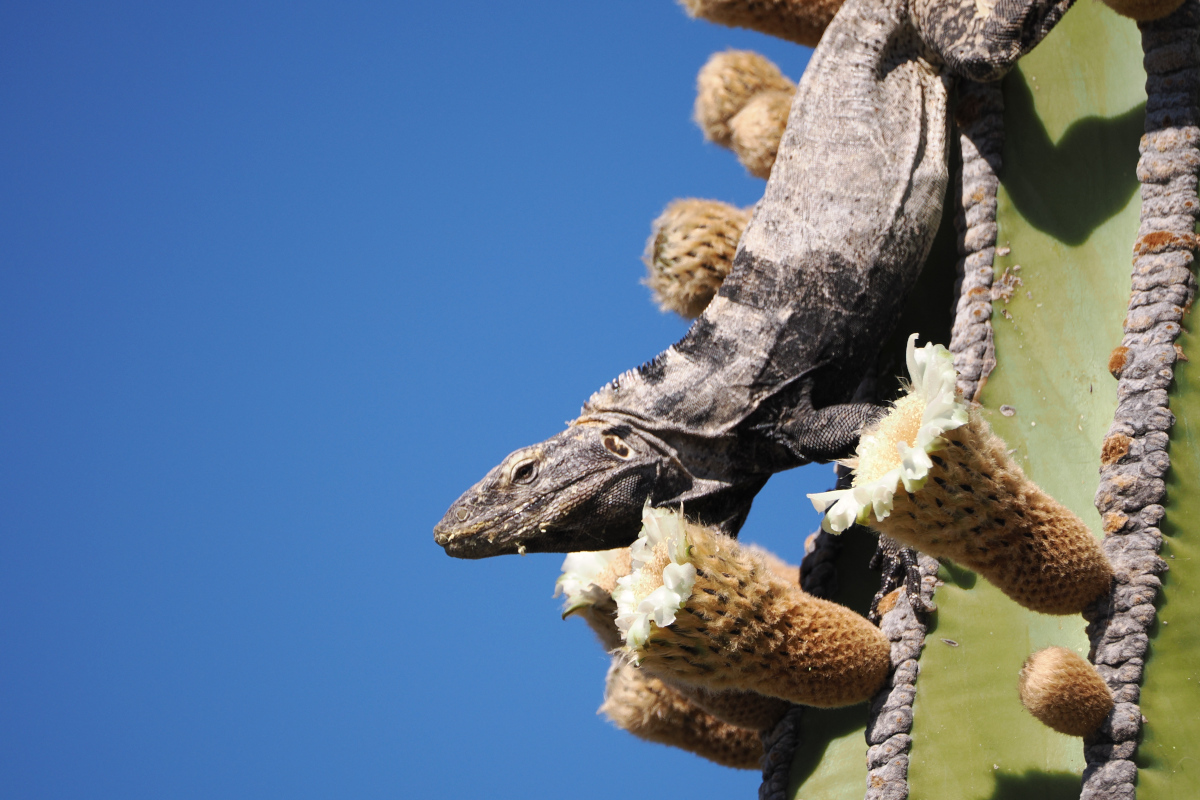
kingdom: Animalia
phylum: Chordata
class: Squamata
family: Iguanidae
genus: Ctenosaura
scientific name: Ctenosaura conspicuosa
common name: San esteban spinytail iguana
